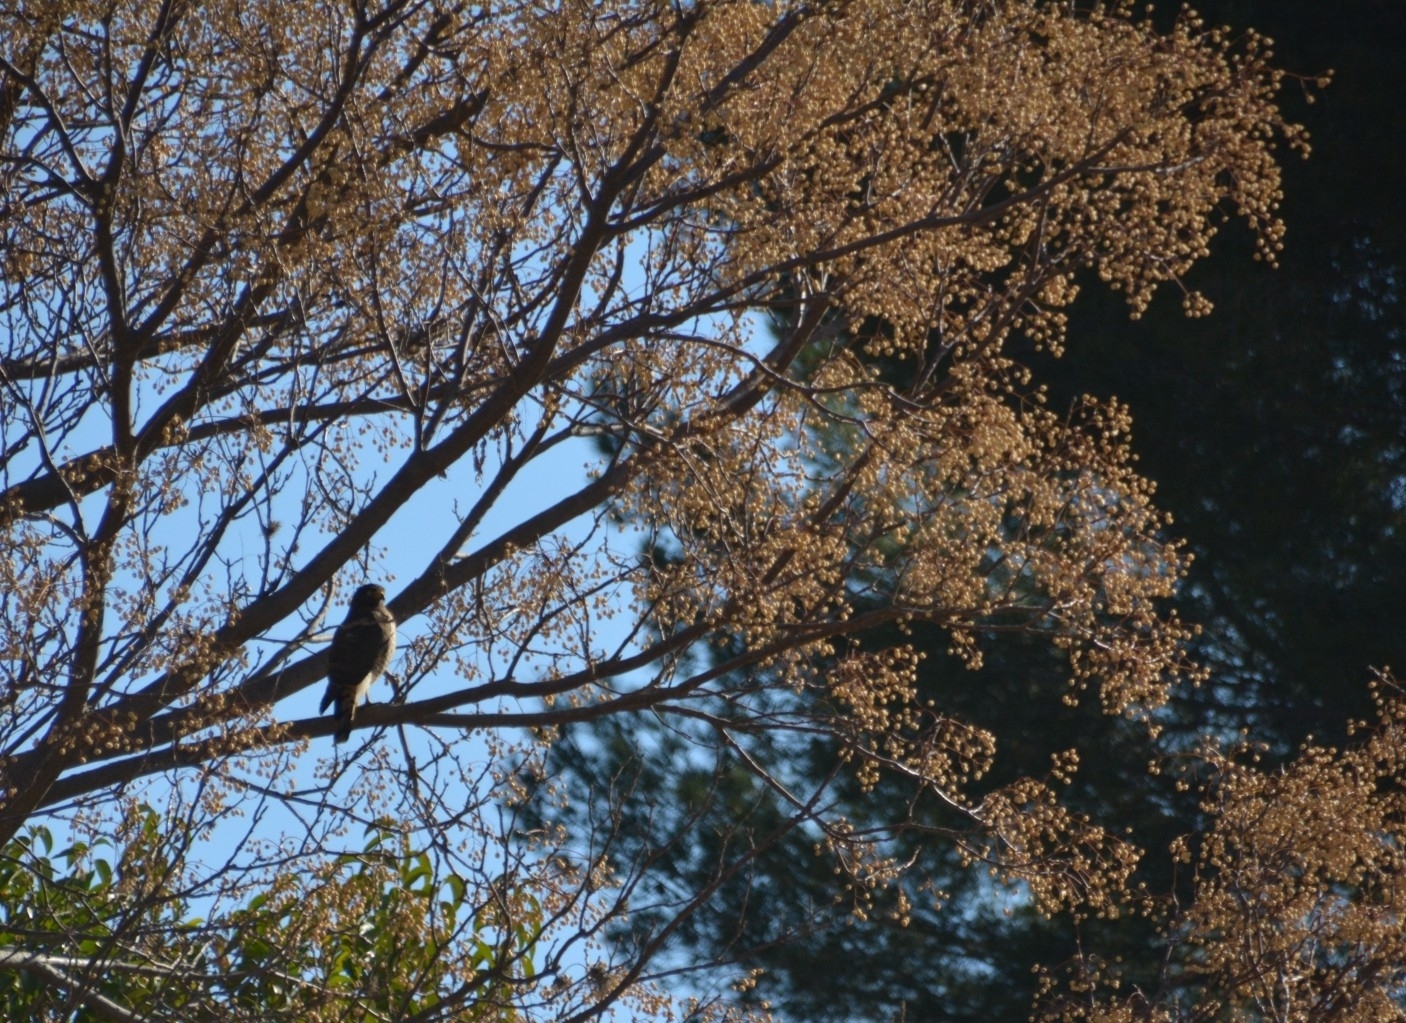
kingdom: Animalia
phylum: Chordata
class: Aves
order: Accipitriformes
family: Accipitridae
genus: Rupornis
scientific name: Rupornis magnirostris
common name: Roadside hawk
